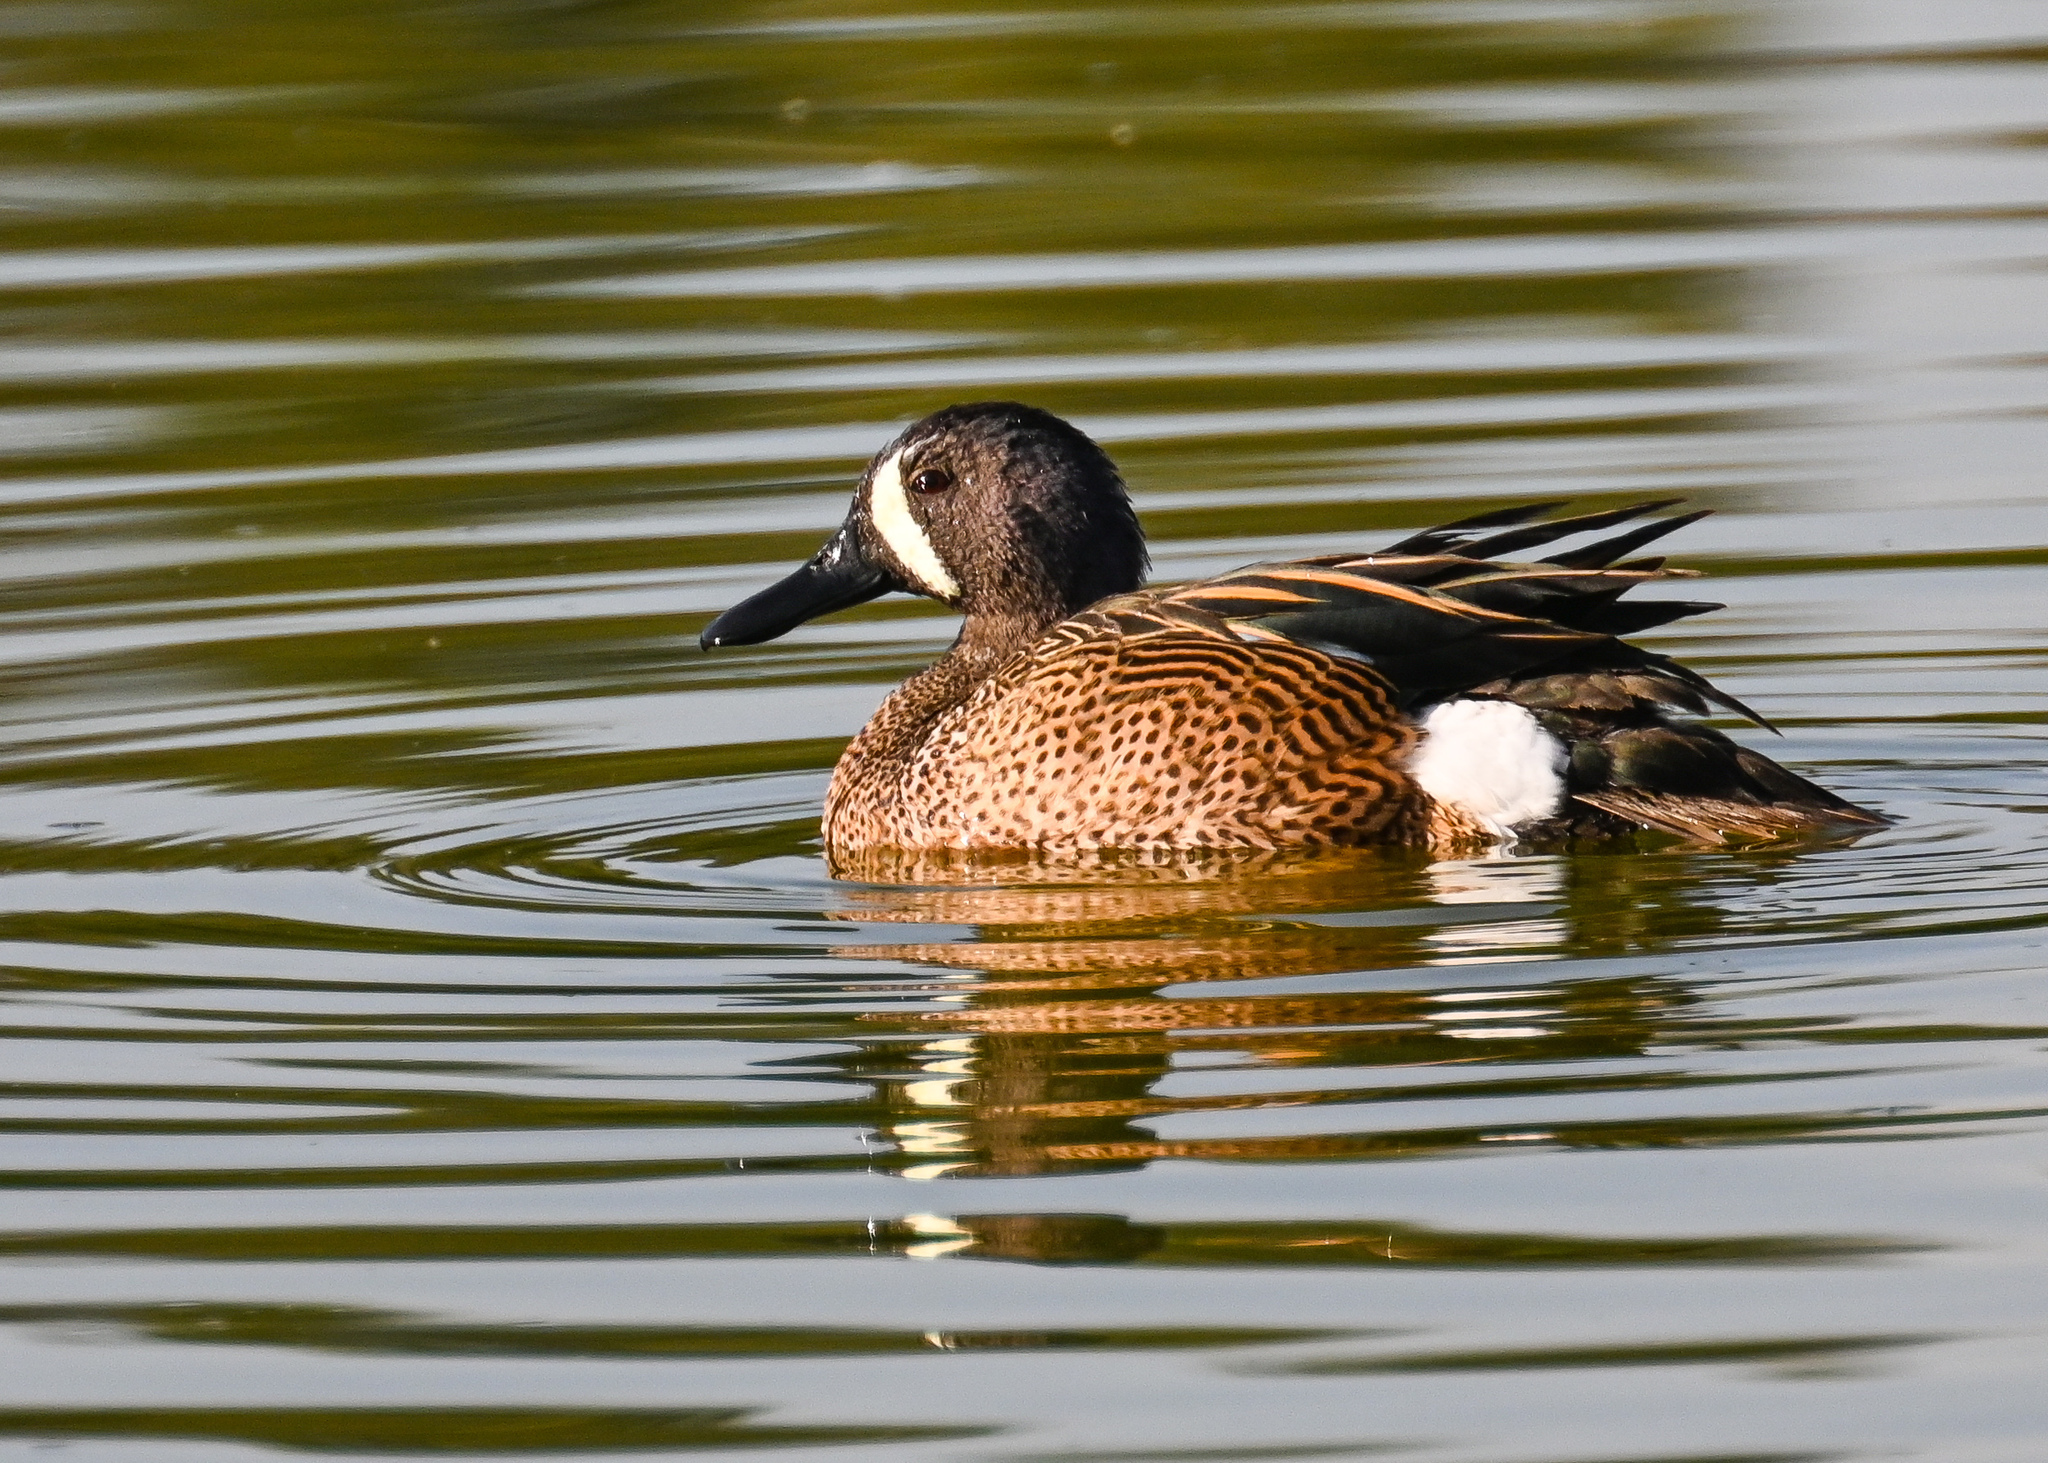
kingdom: Animalia
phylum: Chordata
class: Aves
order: Anseriformes
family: Anatidae
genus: Spatula
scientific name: Spatula discors
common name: Blue-winged teal
